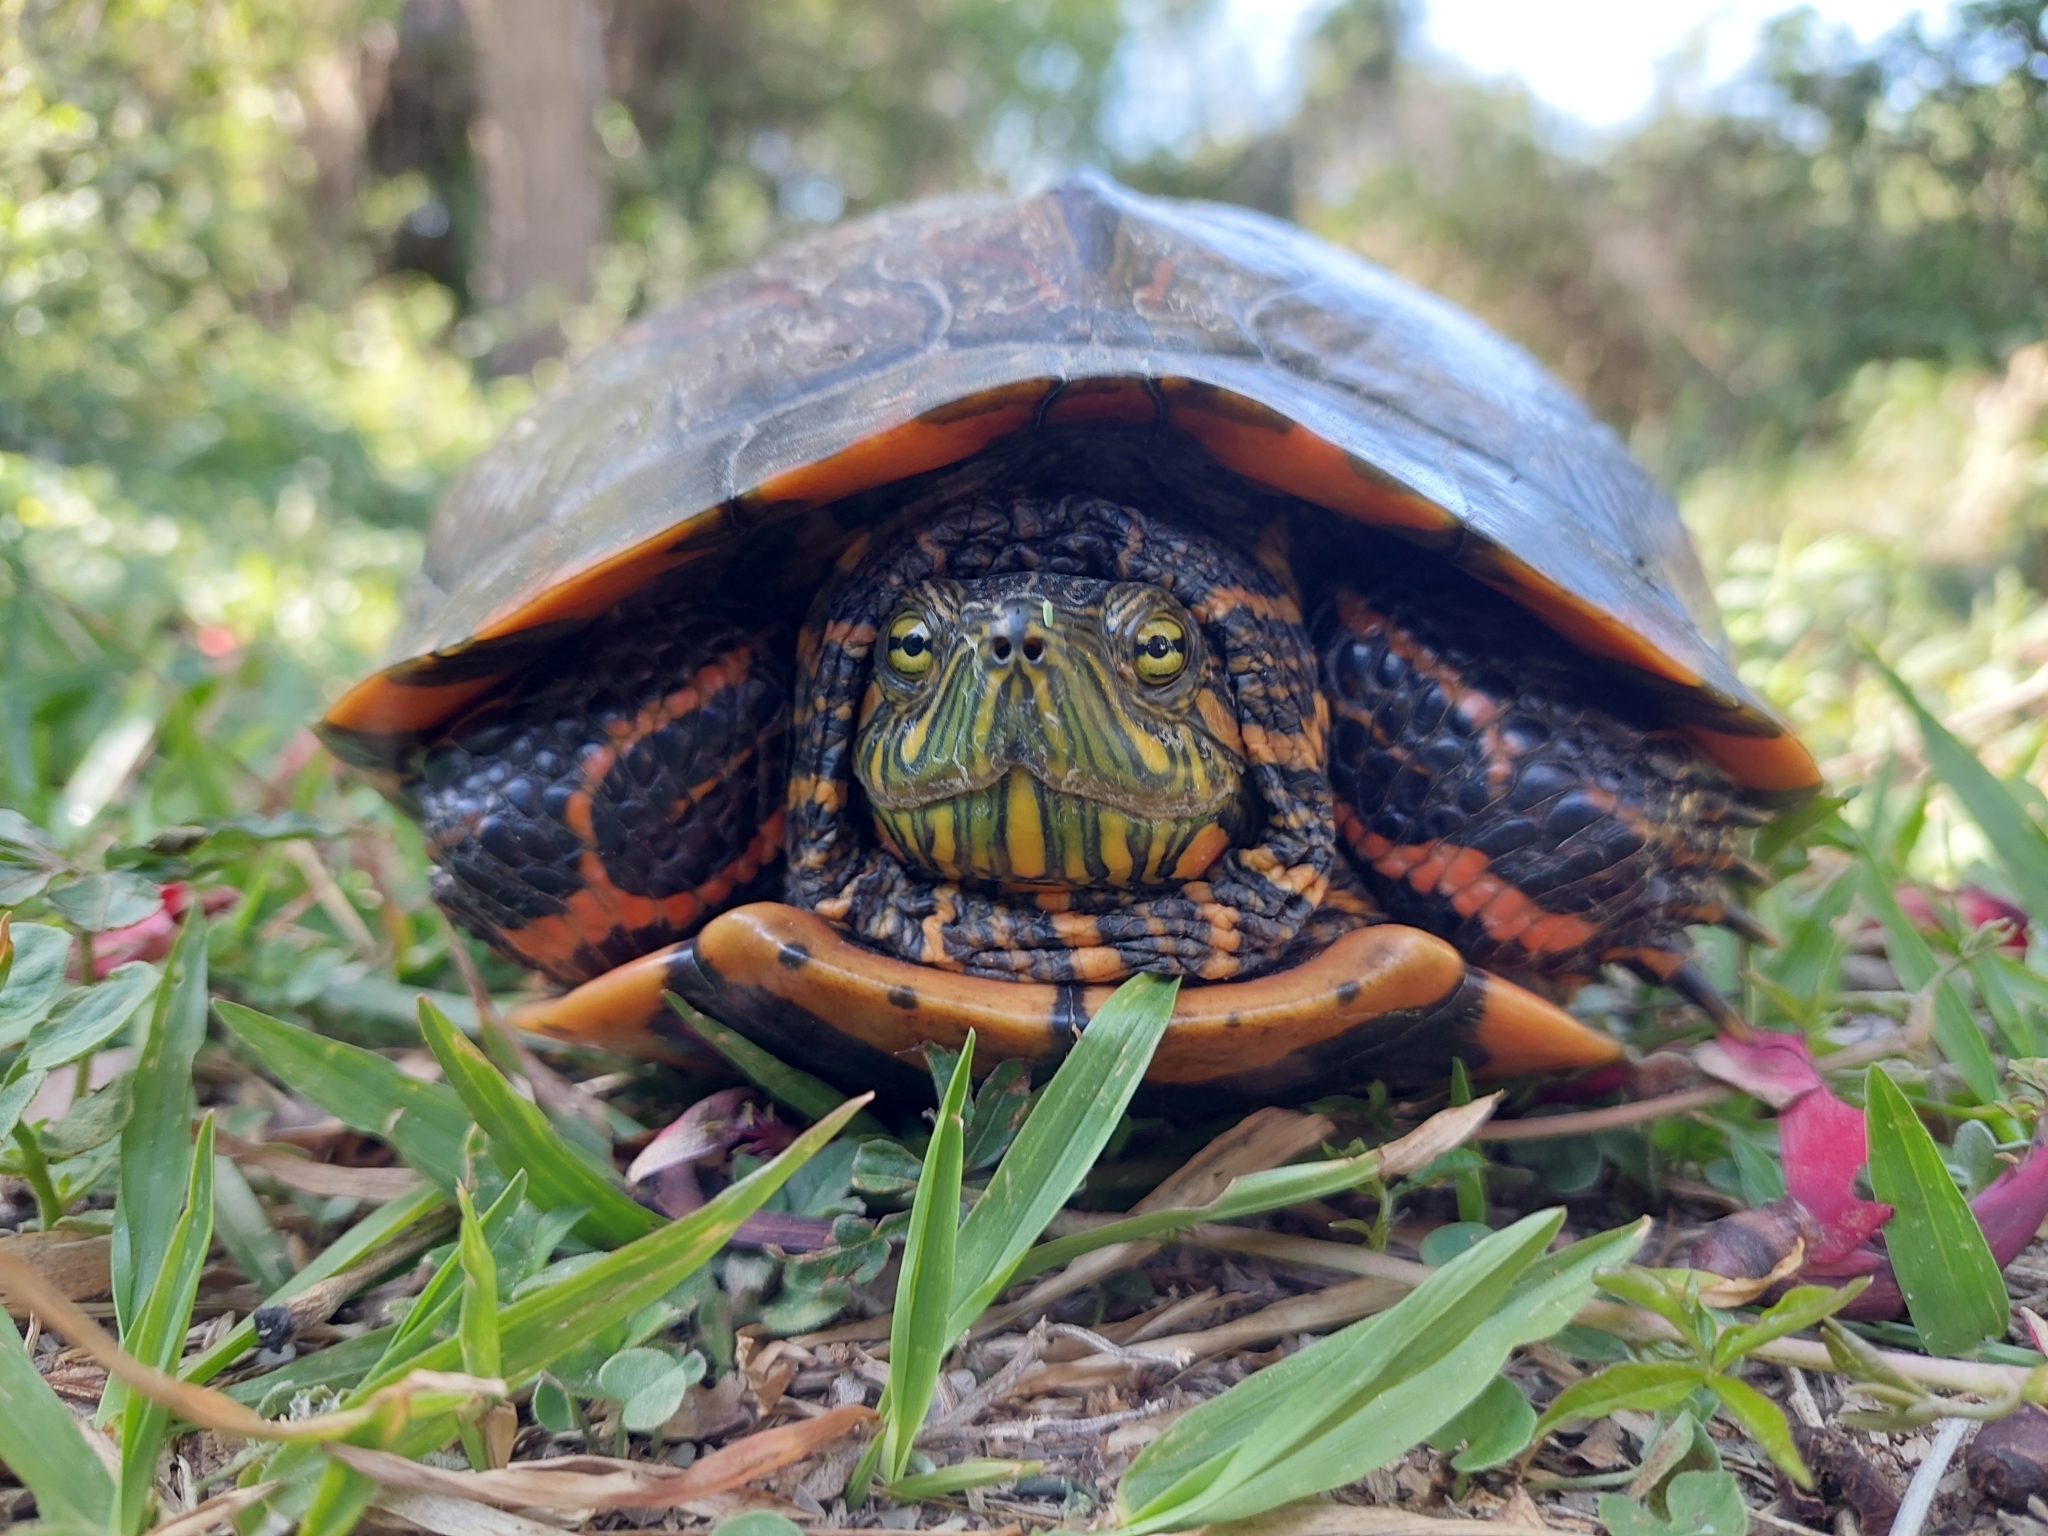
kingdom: Animalia
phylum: Chordata
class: Testudines
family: Emydidae
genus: Trachemys
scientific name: Trachemys dorbigni
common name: Black-bellied slider
